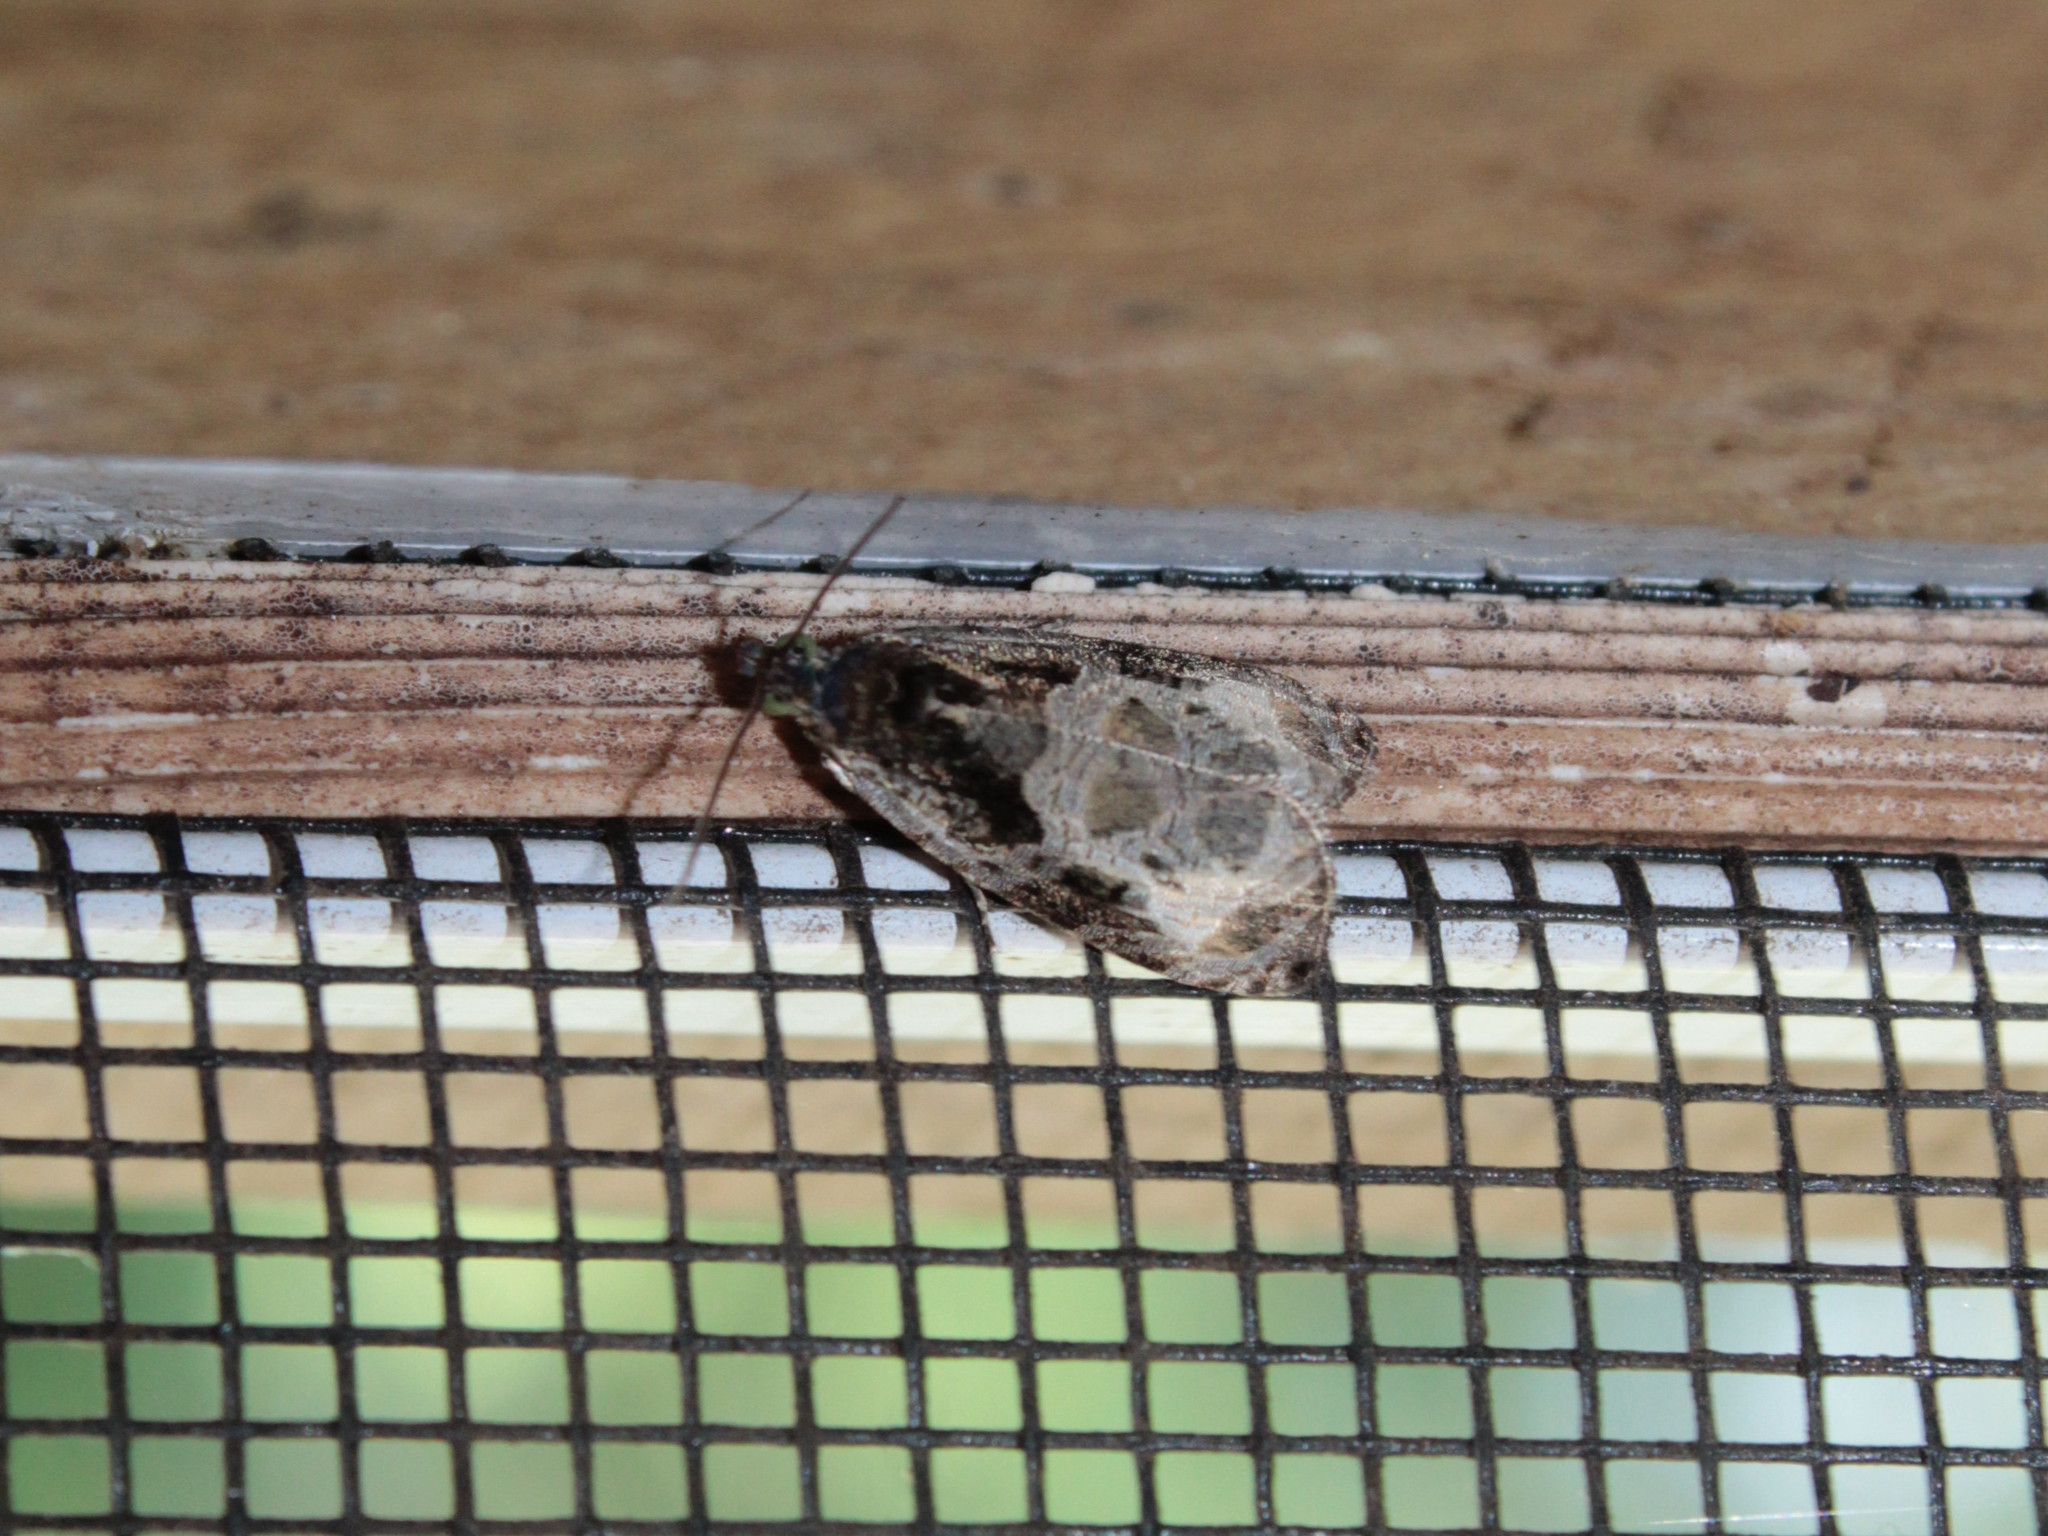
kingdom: Animalia
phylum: Arthropoda
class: Insecta
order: Lepidoptera
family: Tortricidae
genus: Olethreutes
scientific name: Olethreutes connectum
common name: Bunchberry leaffolder moth
